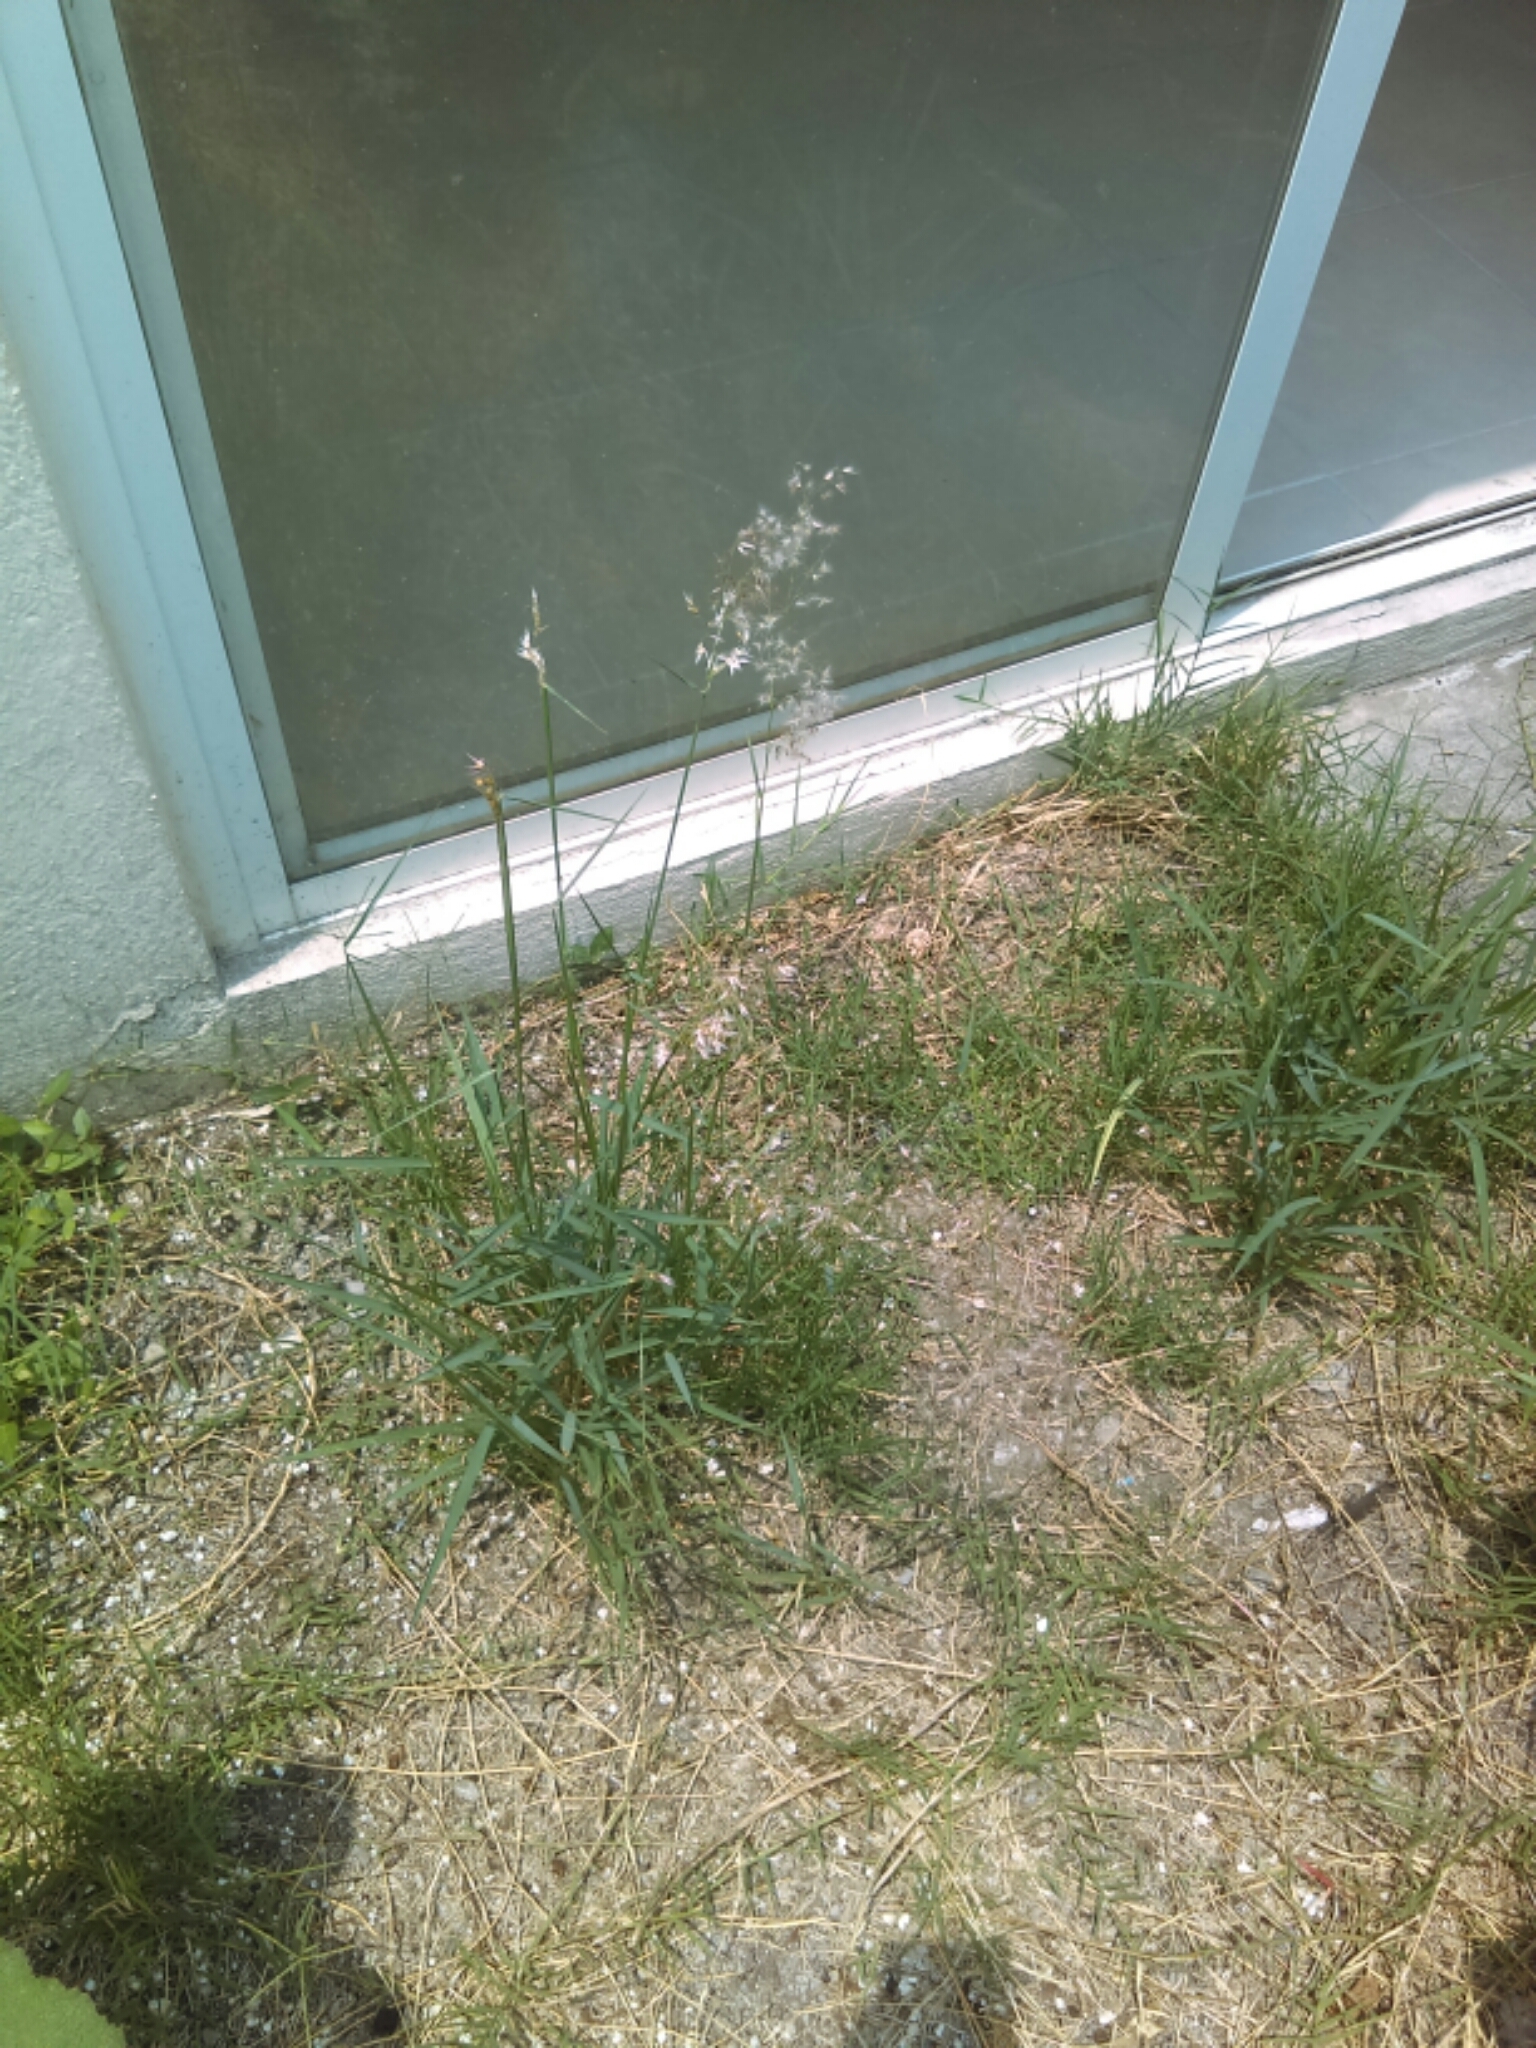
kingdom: Plantae
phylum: Tracheophyta
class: Liliopsida
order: Poales
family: Poaceae
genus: Melinis
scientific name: Melinis repens
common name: Rose natal grass
